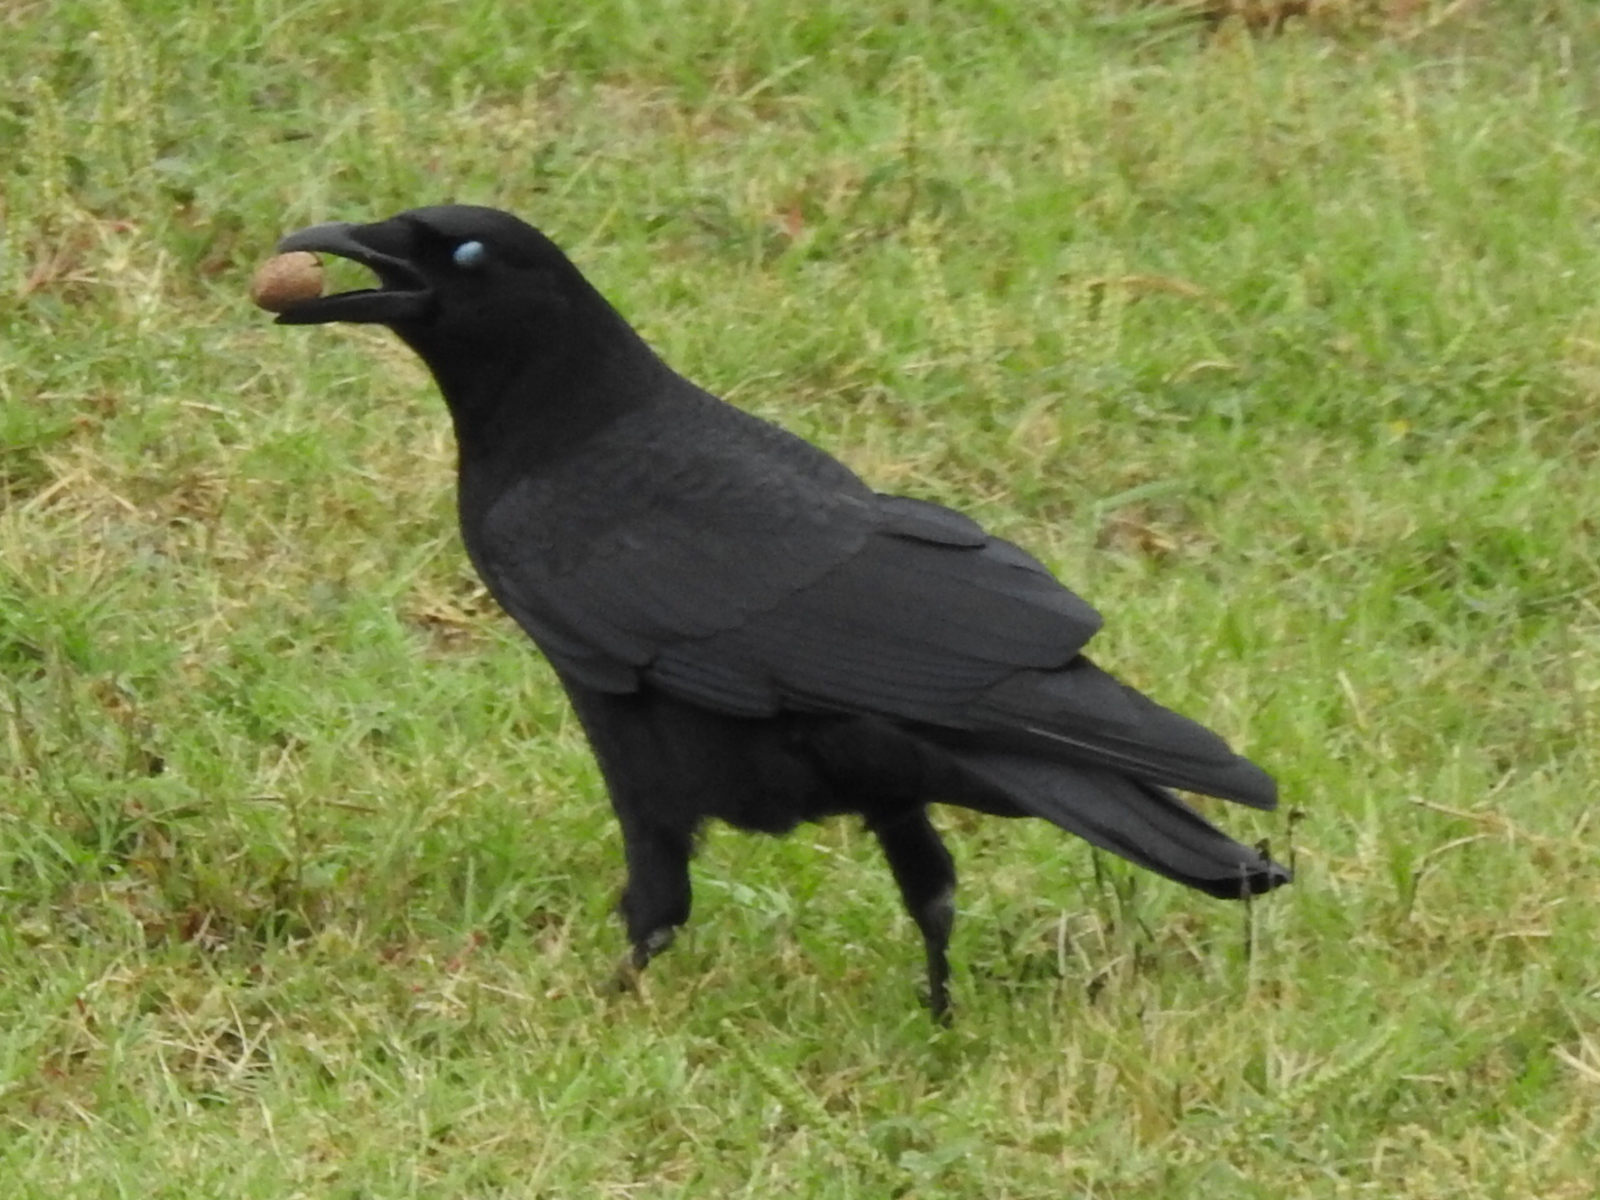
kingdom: Animalia
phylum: Chordata
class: Aves
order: Passeriformes
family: Corvidae
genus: Corvus
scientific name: Corvus brachyrhynchos
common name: American crow
